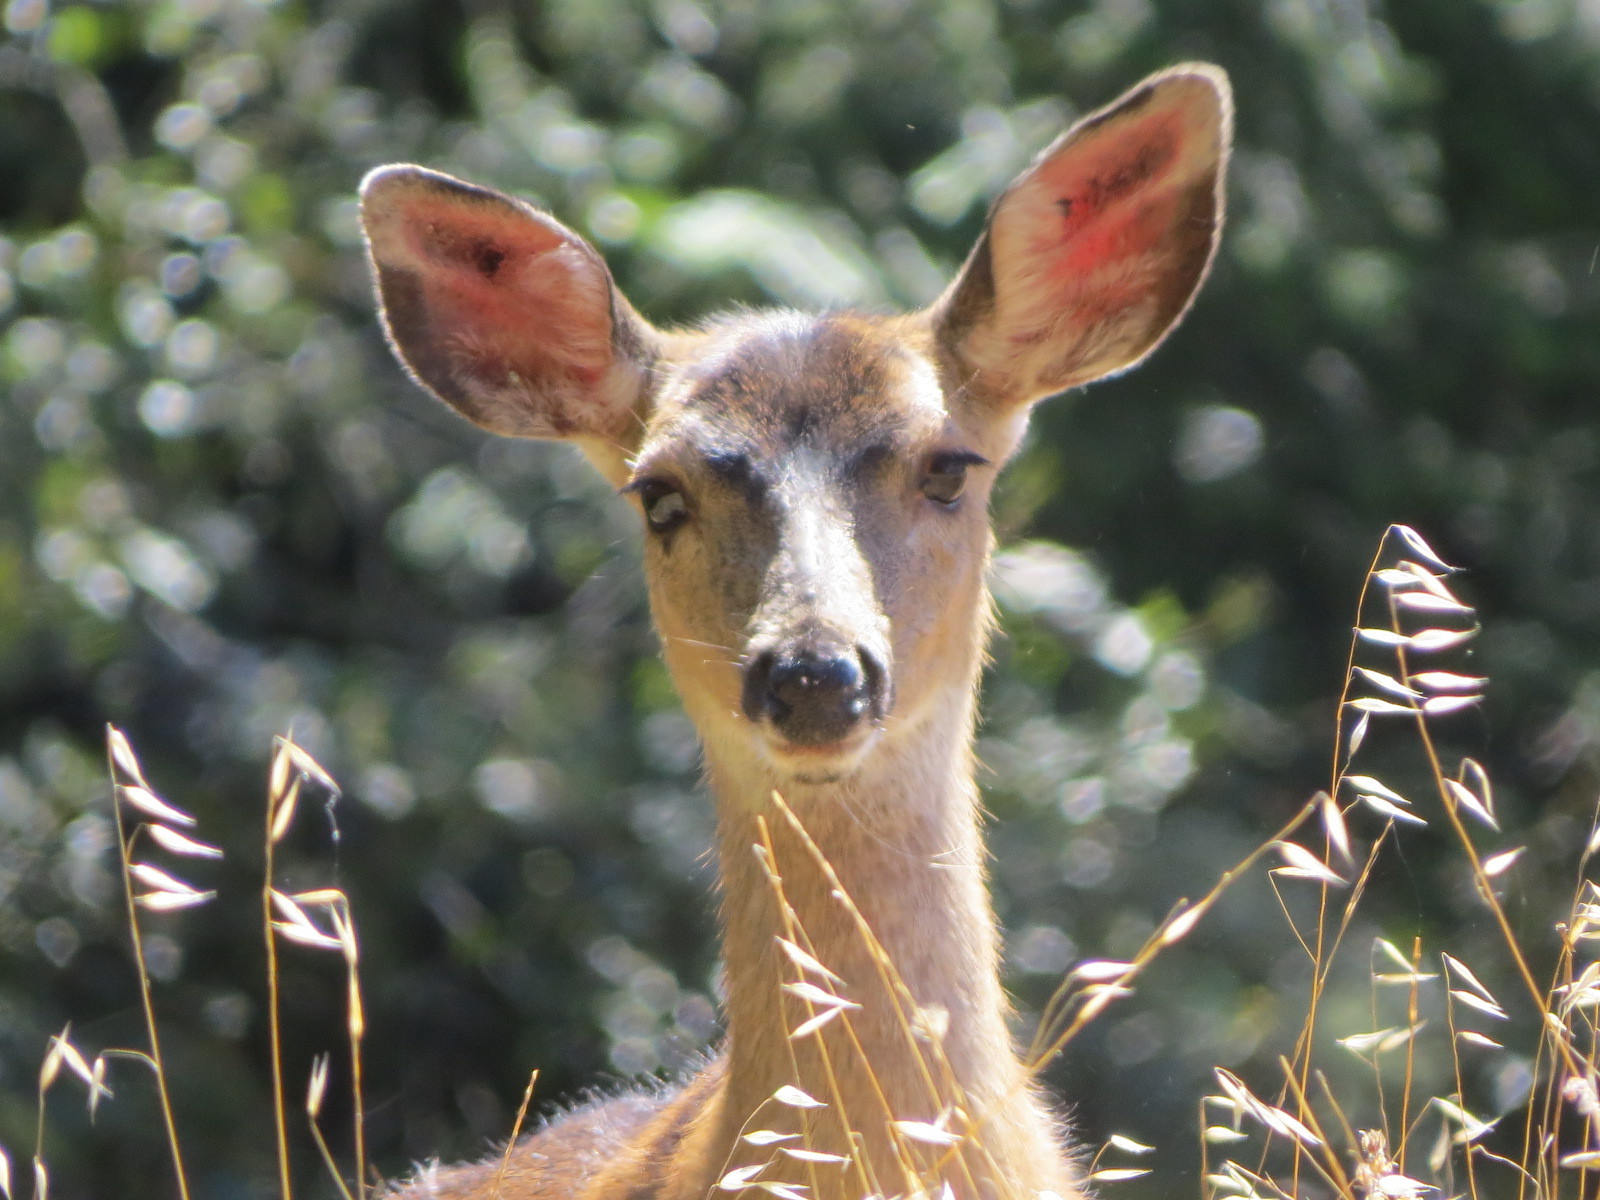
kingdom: Animalia
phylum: Chordata
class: Mammalia
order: Artiodactyla
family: Cervidae
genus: Odocoileus
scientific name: Odocoileus hemionus
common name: Mule deer
